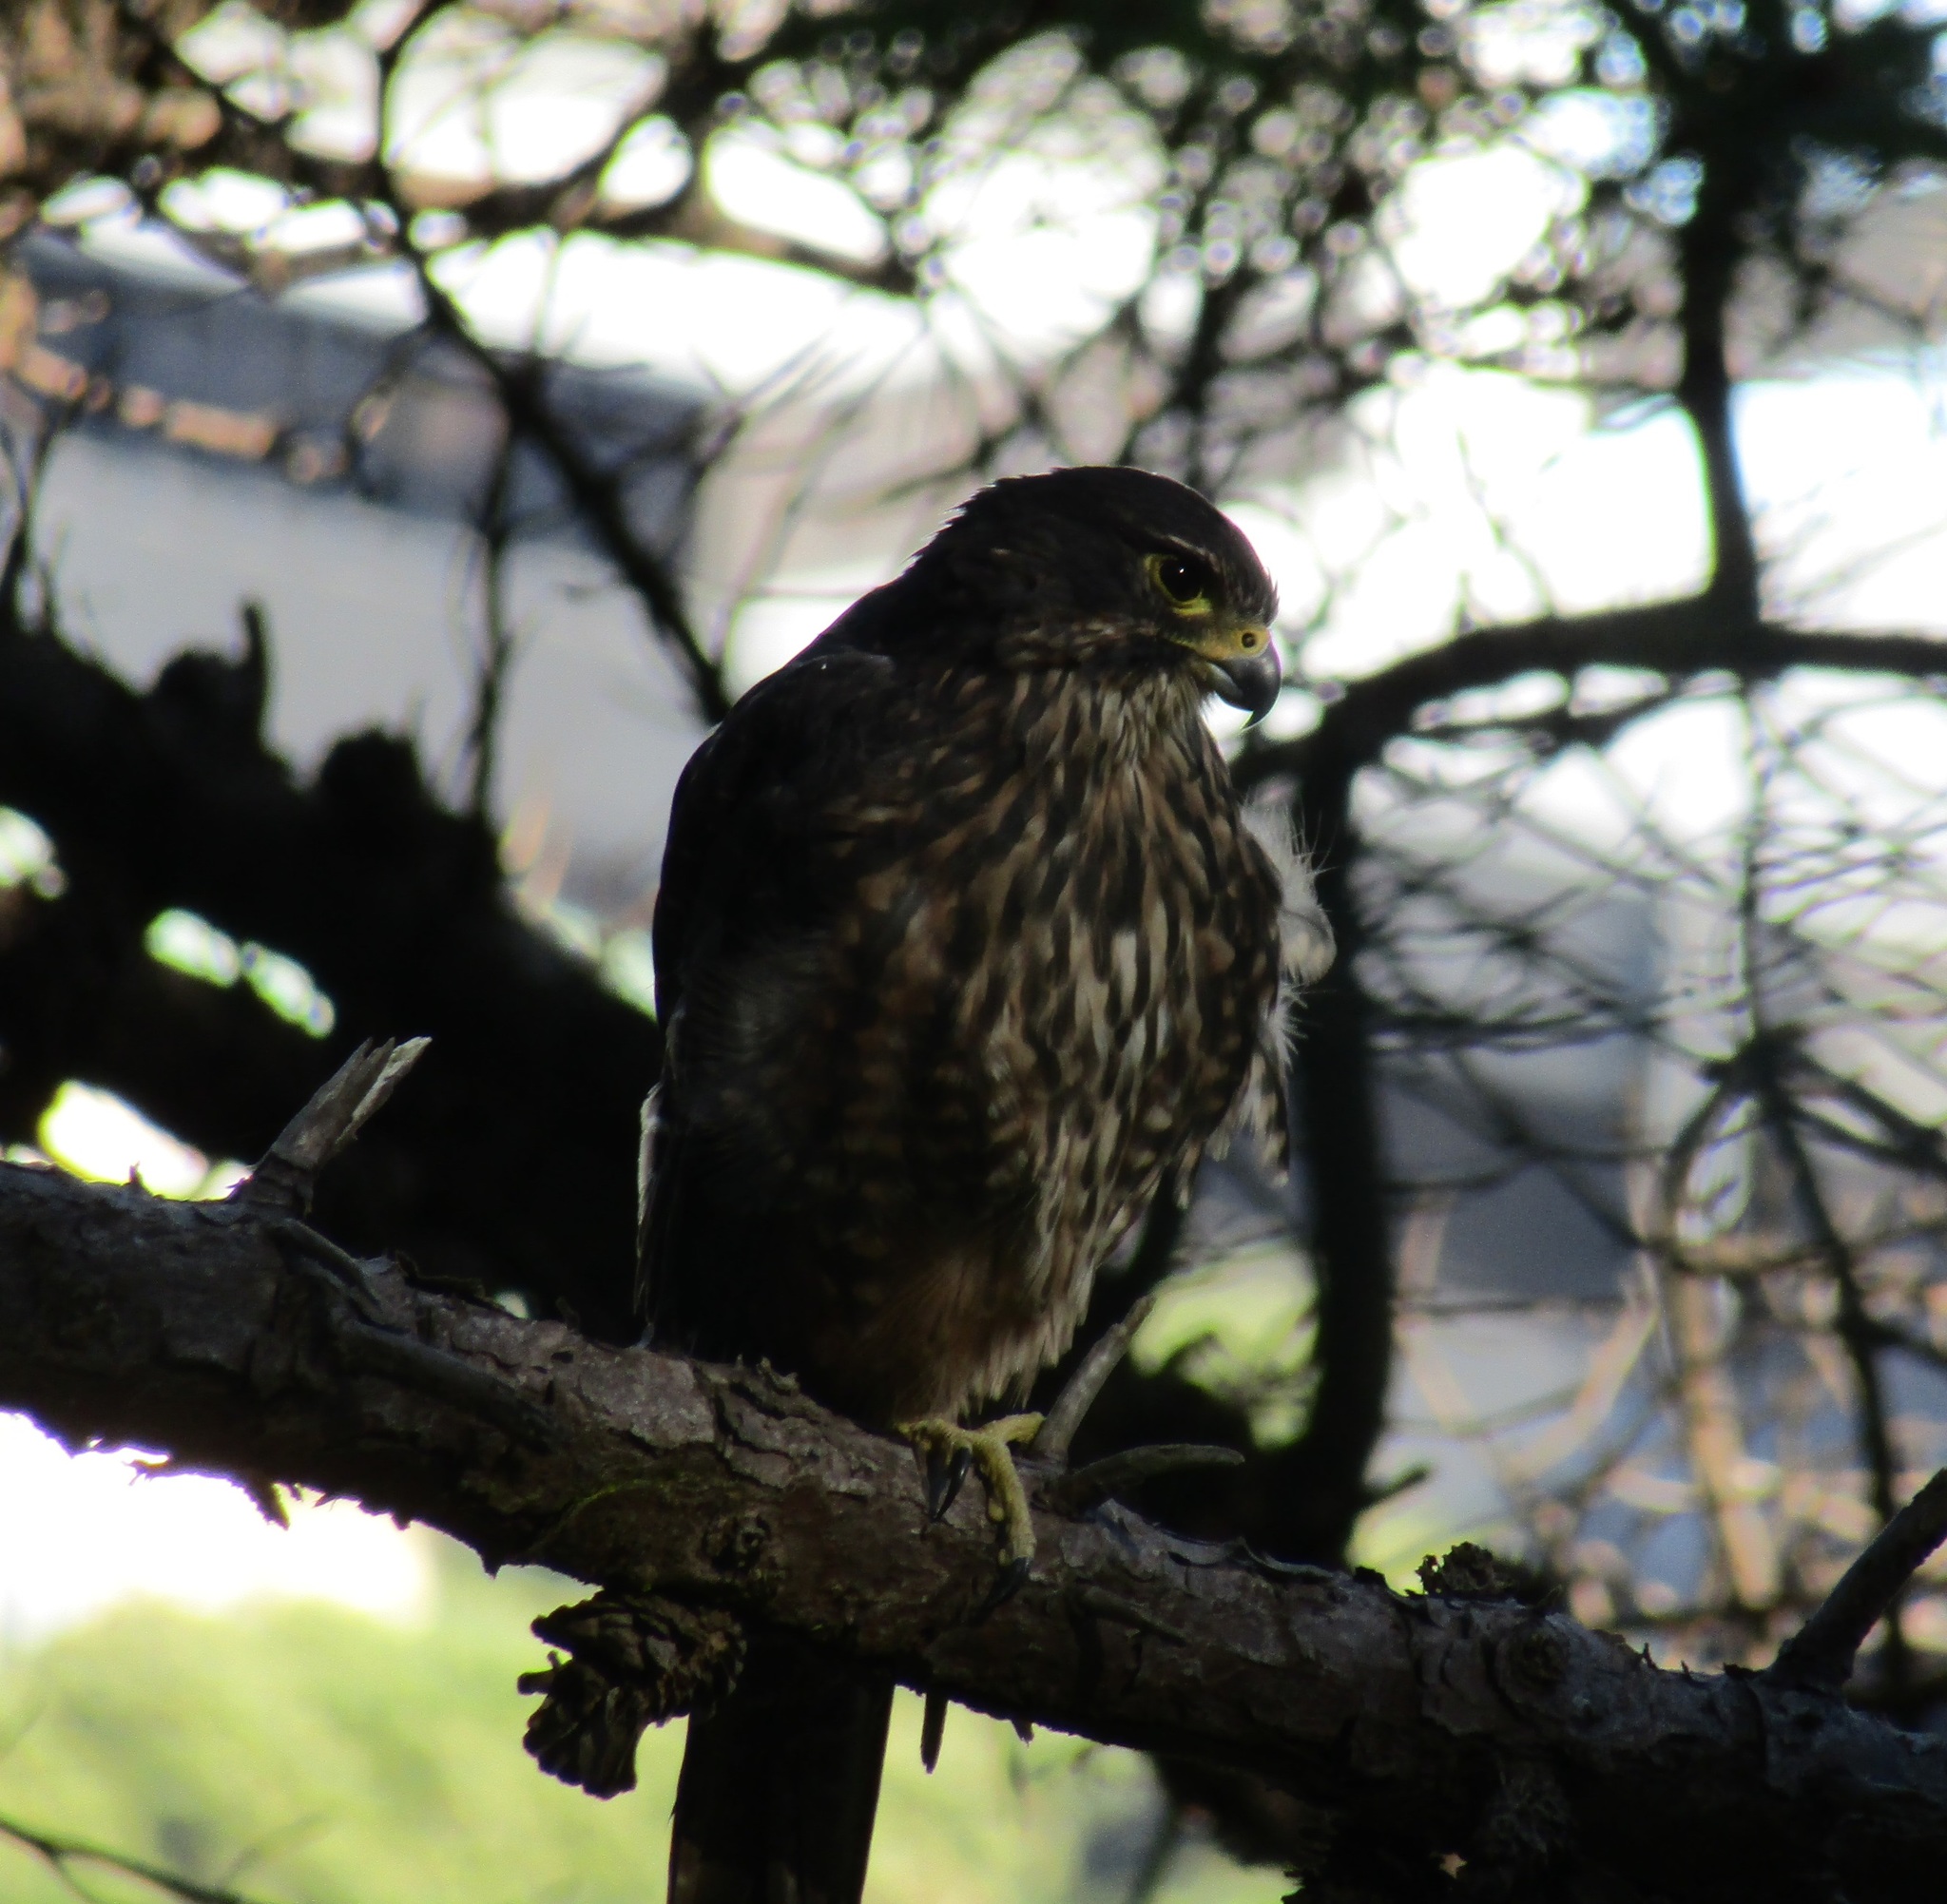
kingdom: Animalia
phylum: Chordata
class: Aves
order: Falconiformes
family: Falconidae
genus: Falco
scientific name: Falco novaeseelandiae
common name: New zealand falcon
